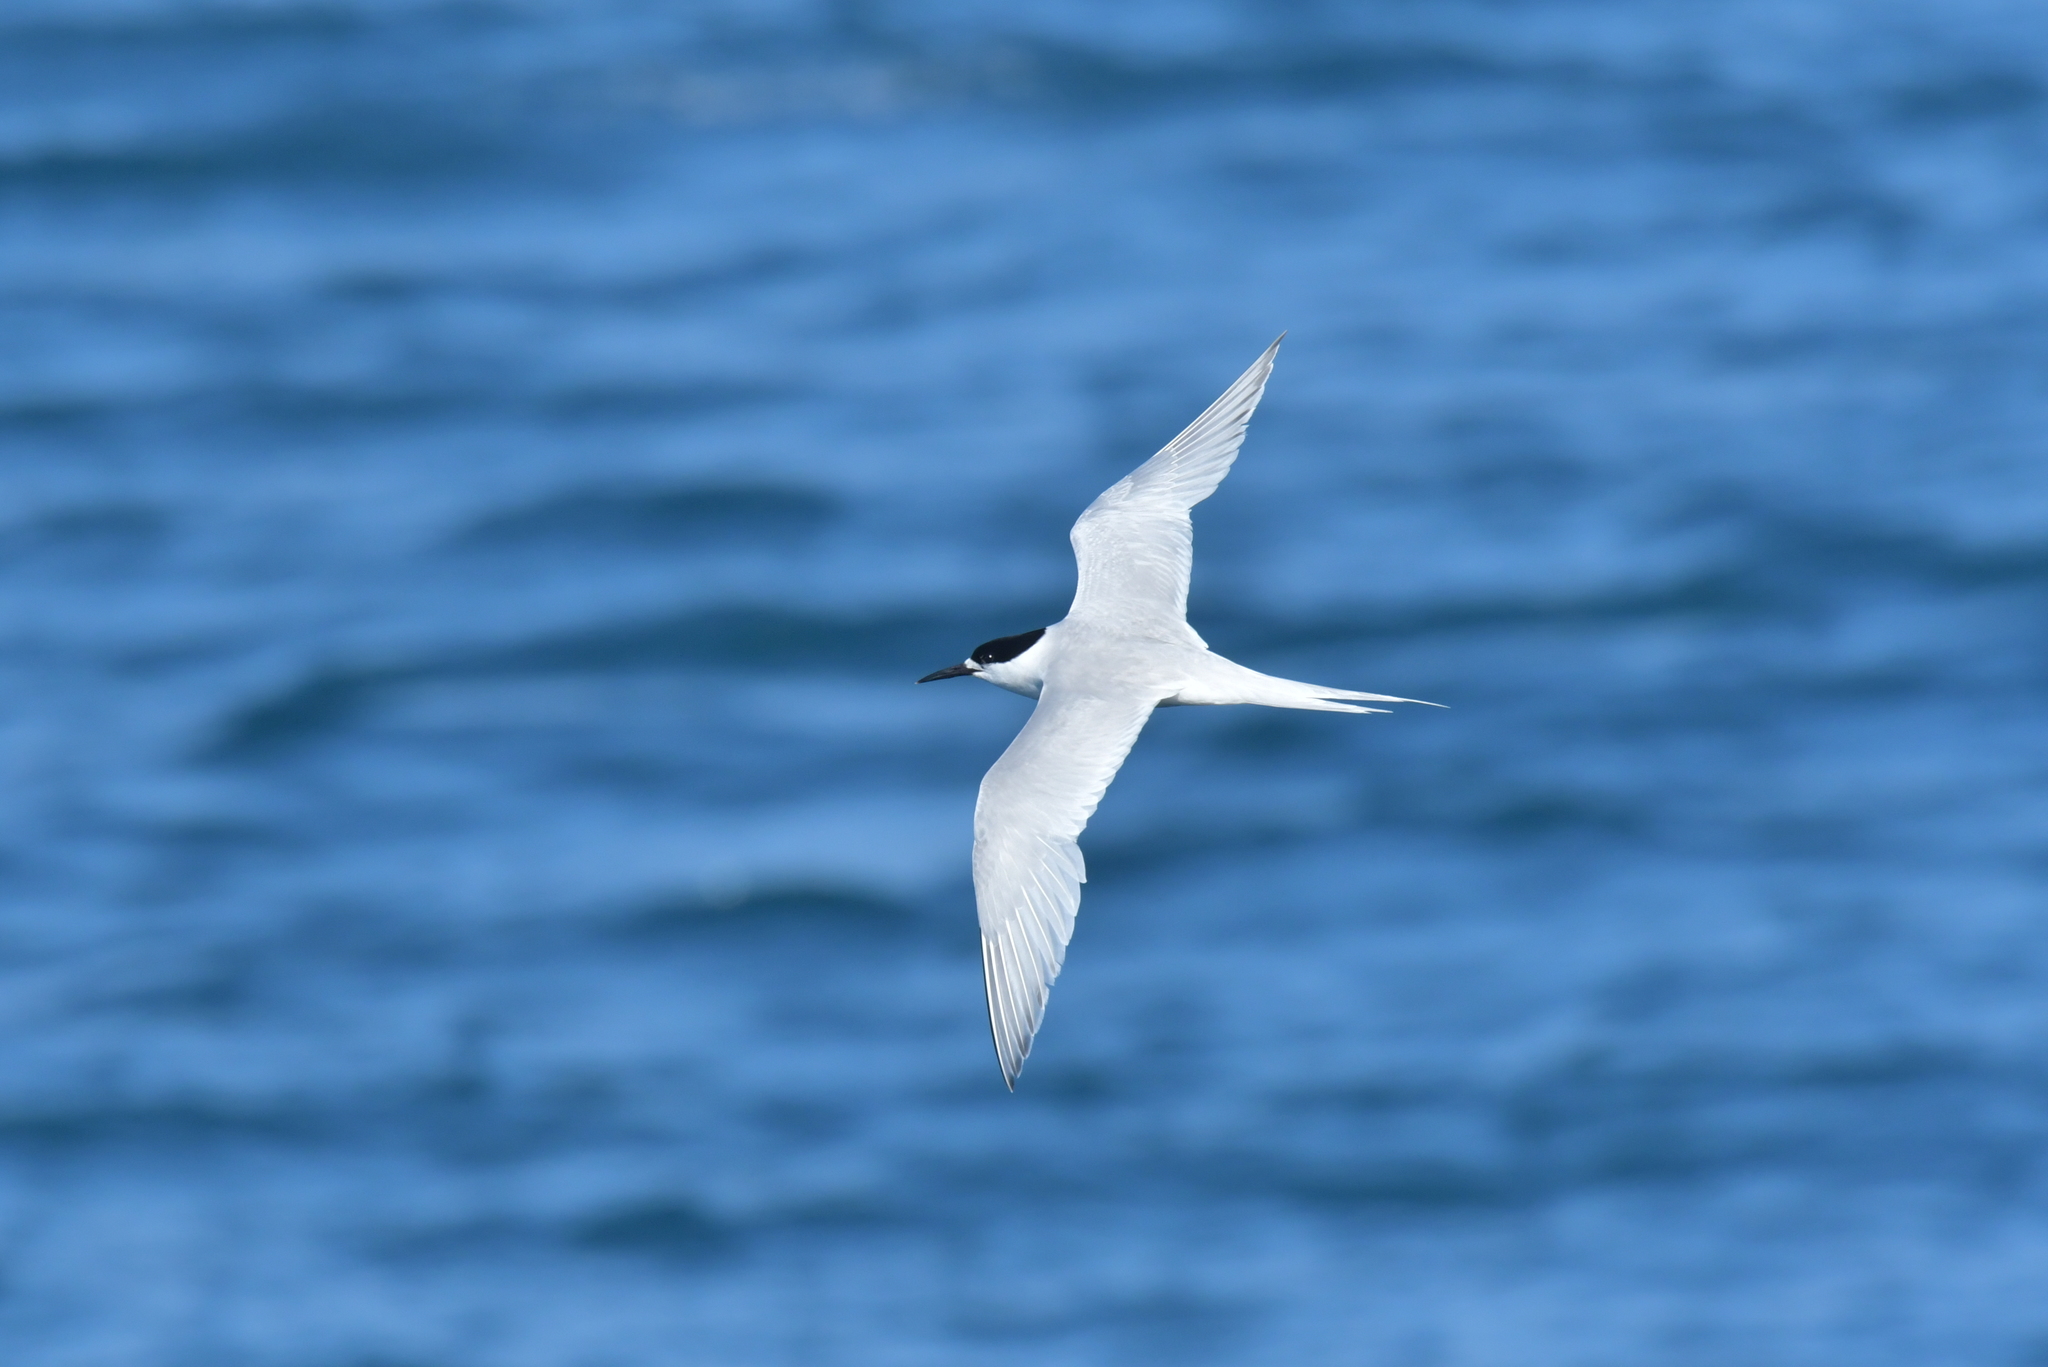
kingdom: Animalia
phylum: Chordata
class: Aves
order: Charadriiformes
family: Laridae
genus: Sterna
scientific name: Sterna striata
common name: White-fronted tern
